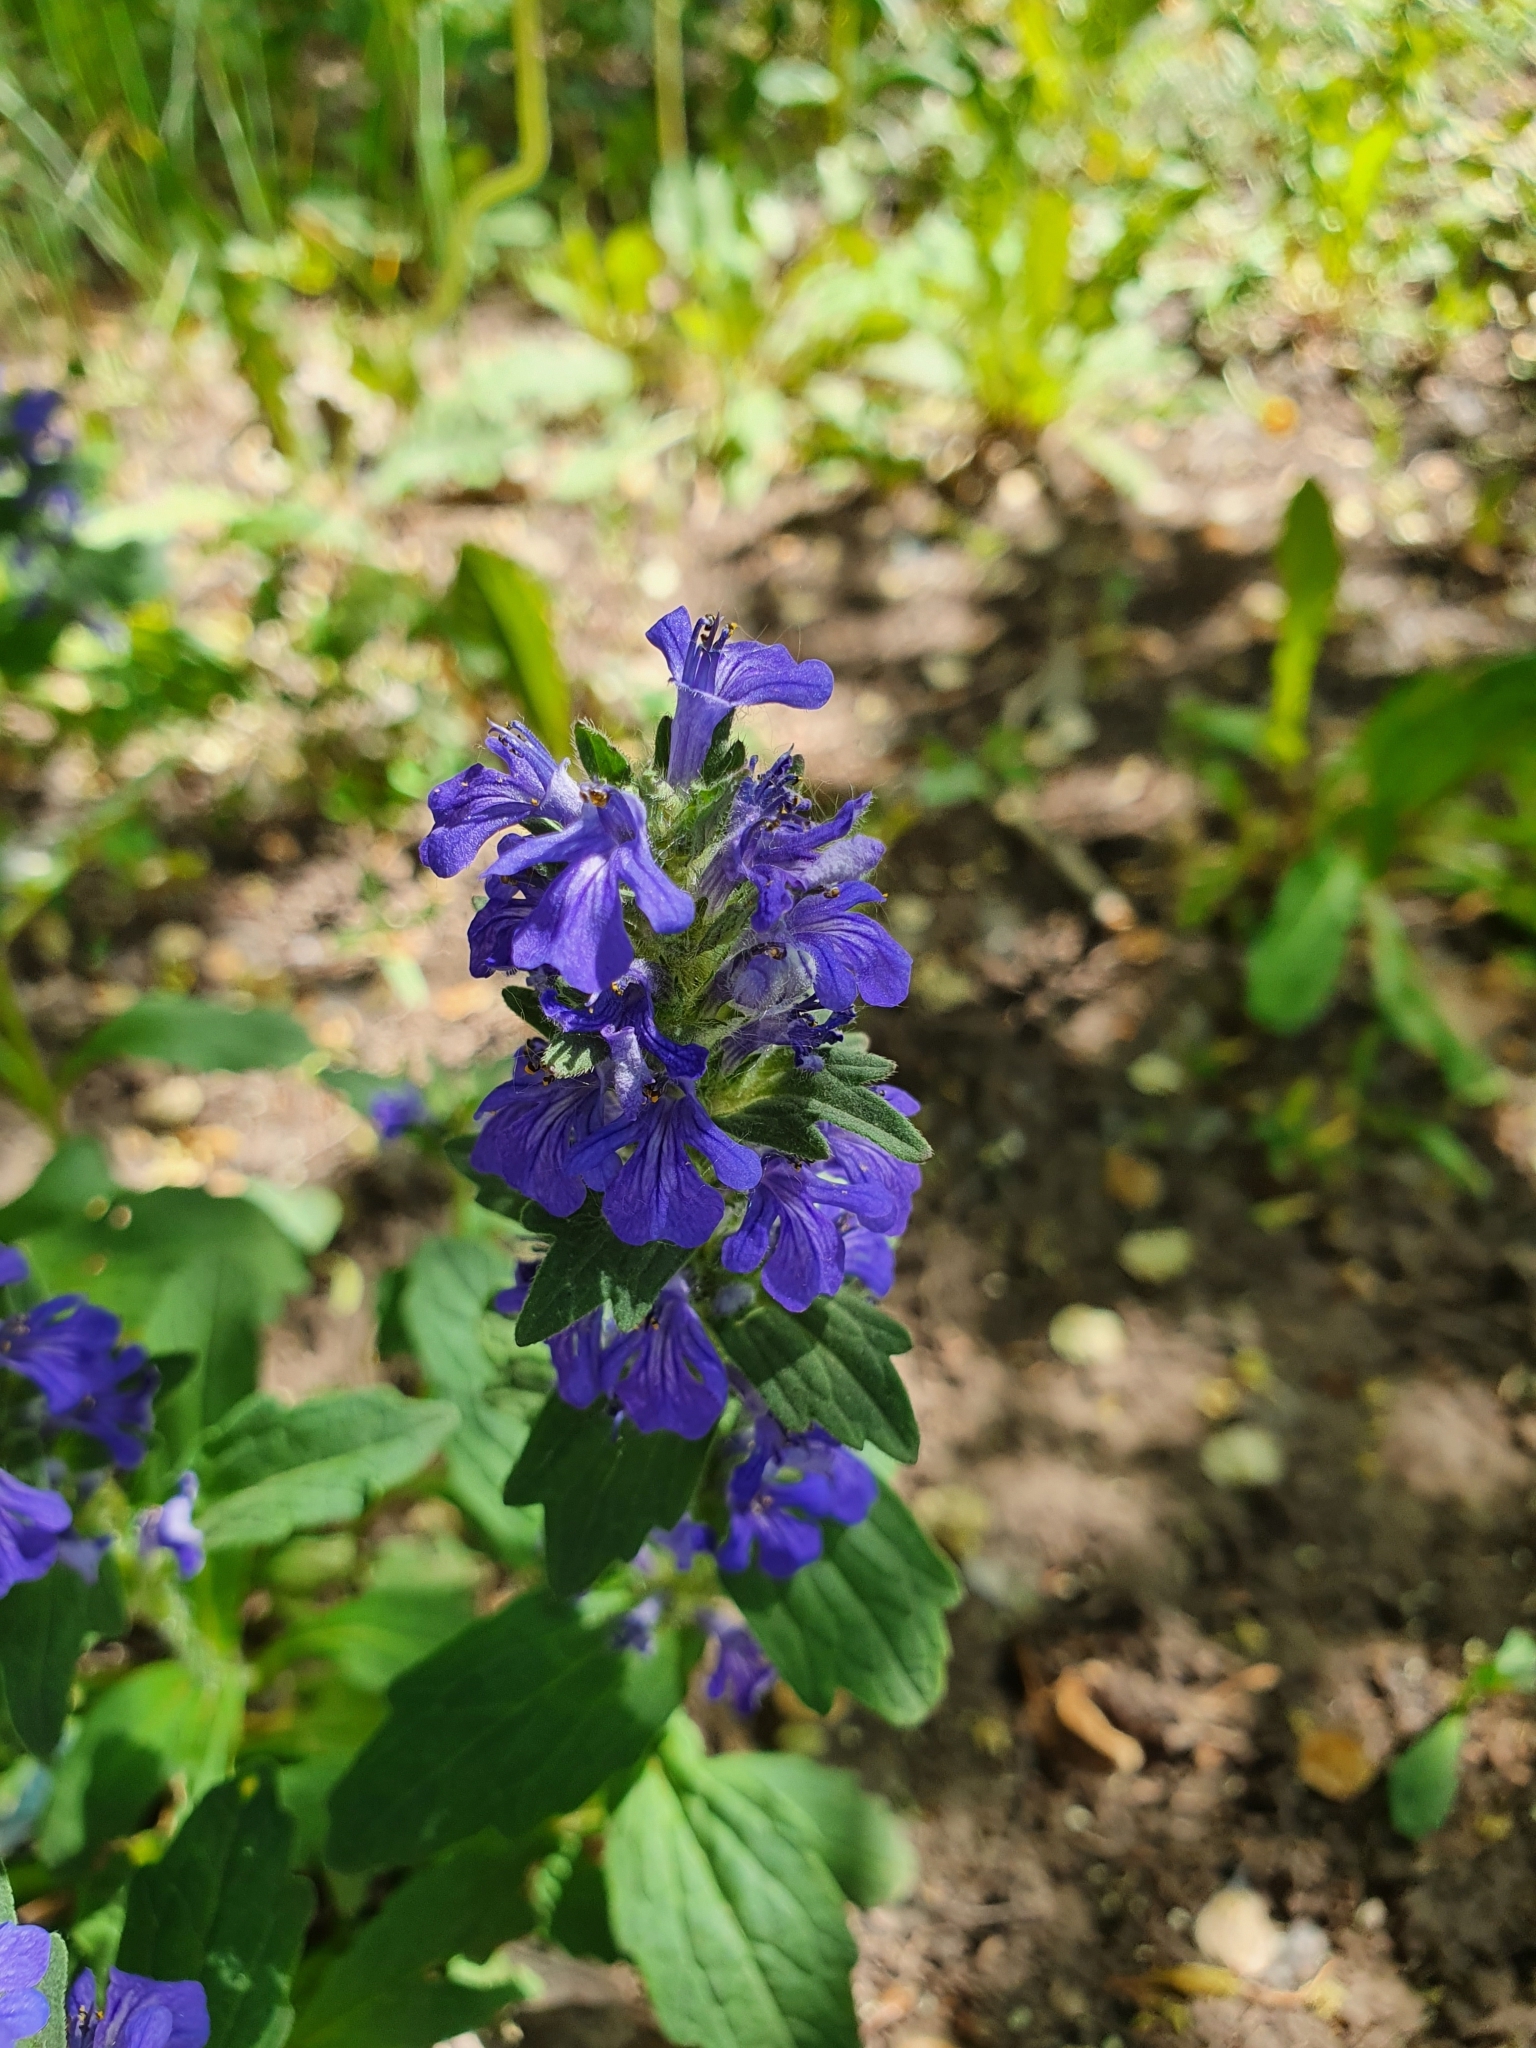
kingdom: Plantae
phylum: Tracheophyta
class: Magnoliopsida
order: Lamiales
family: Lamiaceae
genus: Ajuga
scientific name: Ajuga genevensis
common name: Blue bugle
